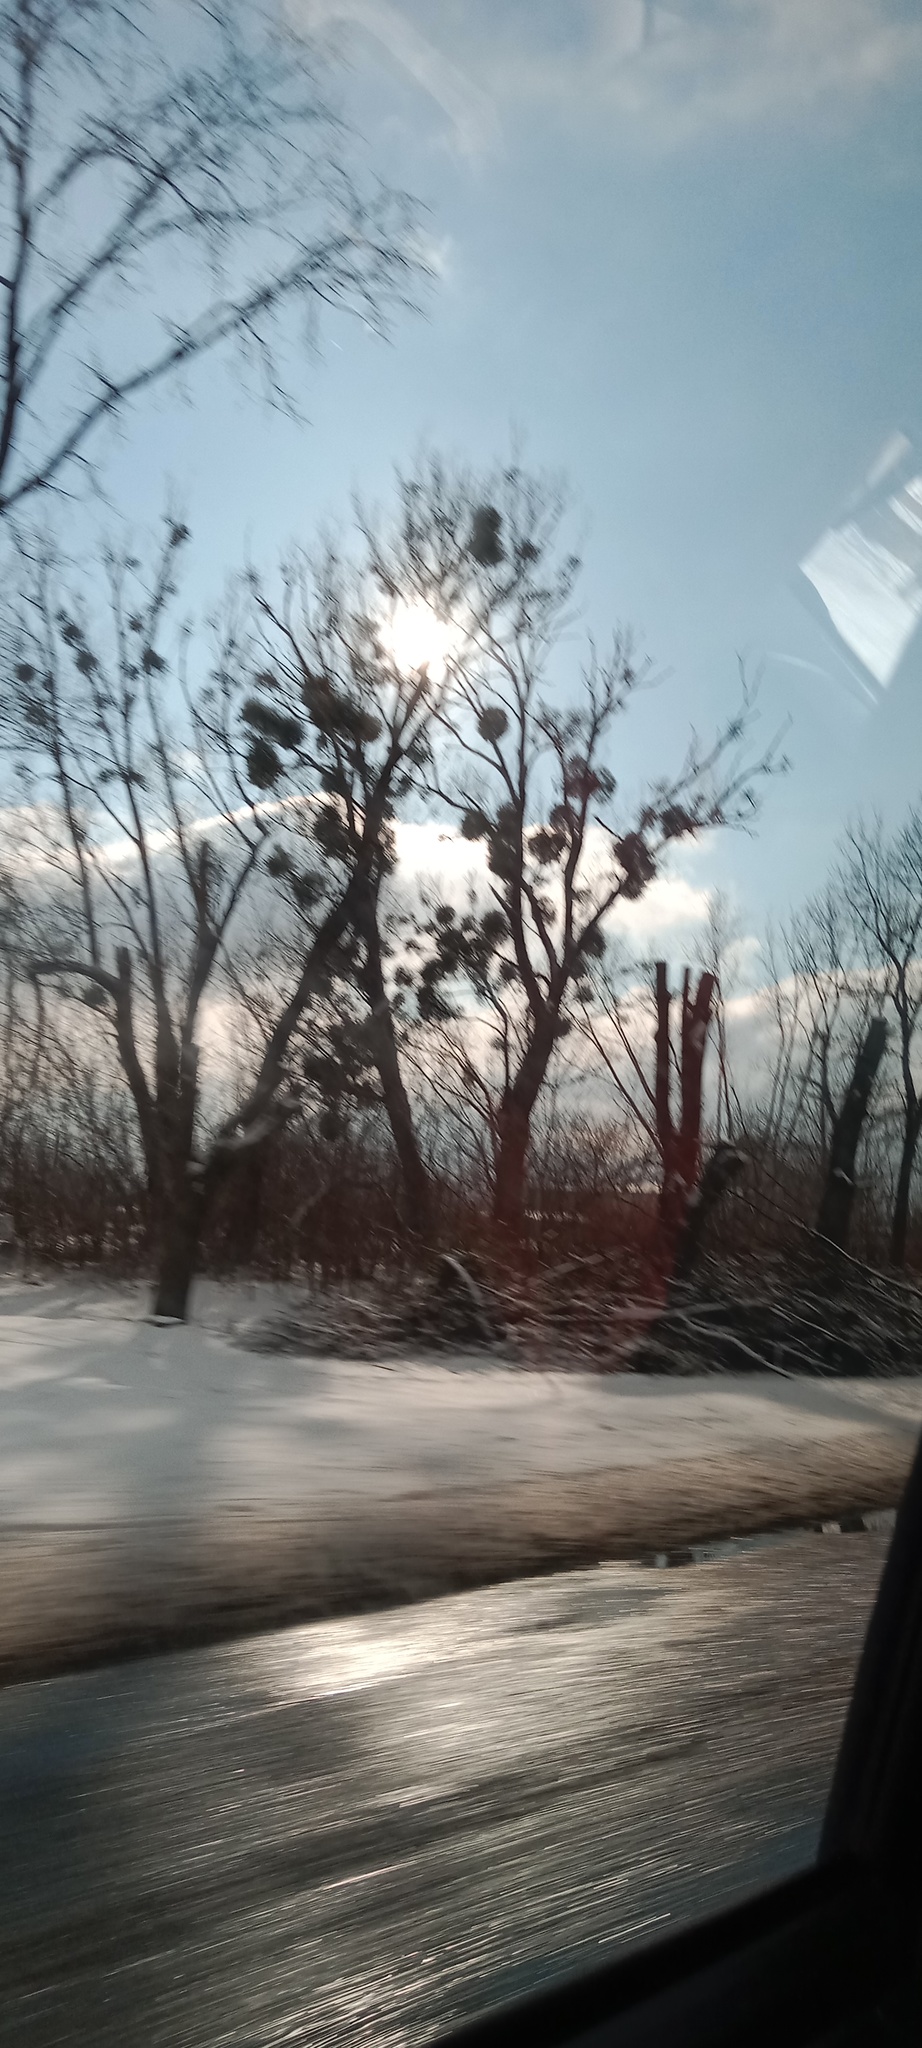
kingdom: Plantae
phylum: Tracheophyta
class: Magnoliopsida
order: Santalales
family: Viscaceae
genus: Viscum
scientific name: Viscum album
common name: Mistletoe
